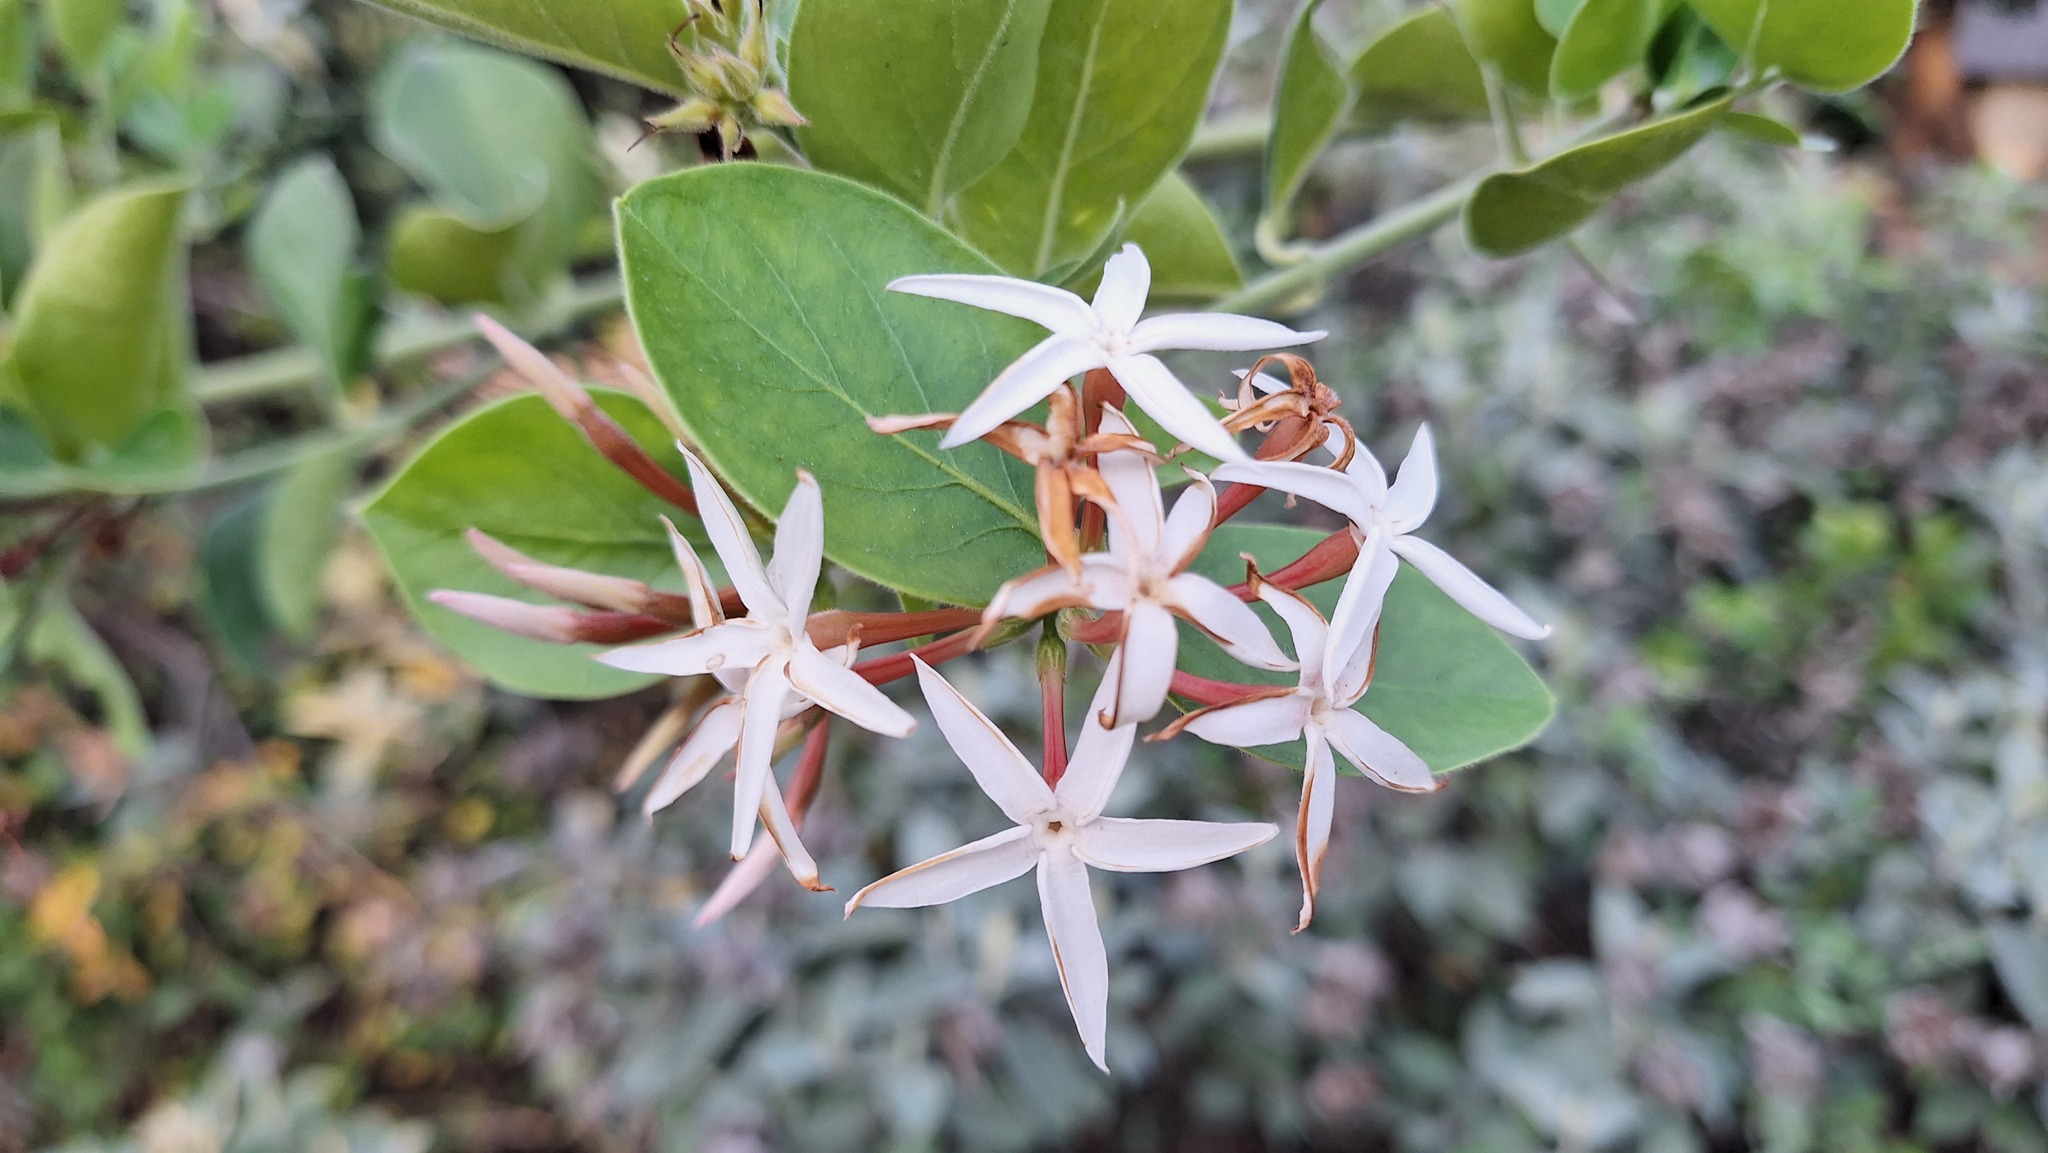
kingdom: Plantae
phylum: Tracheophyta
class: Magnoliopsida
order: Gentianales
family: Apocynaceae
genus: Carissa
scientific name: Carissa spinarum
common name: Egyptian carissa
